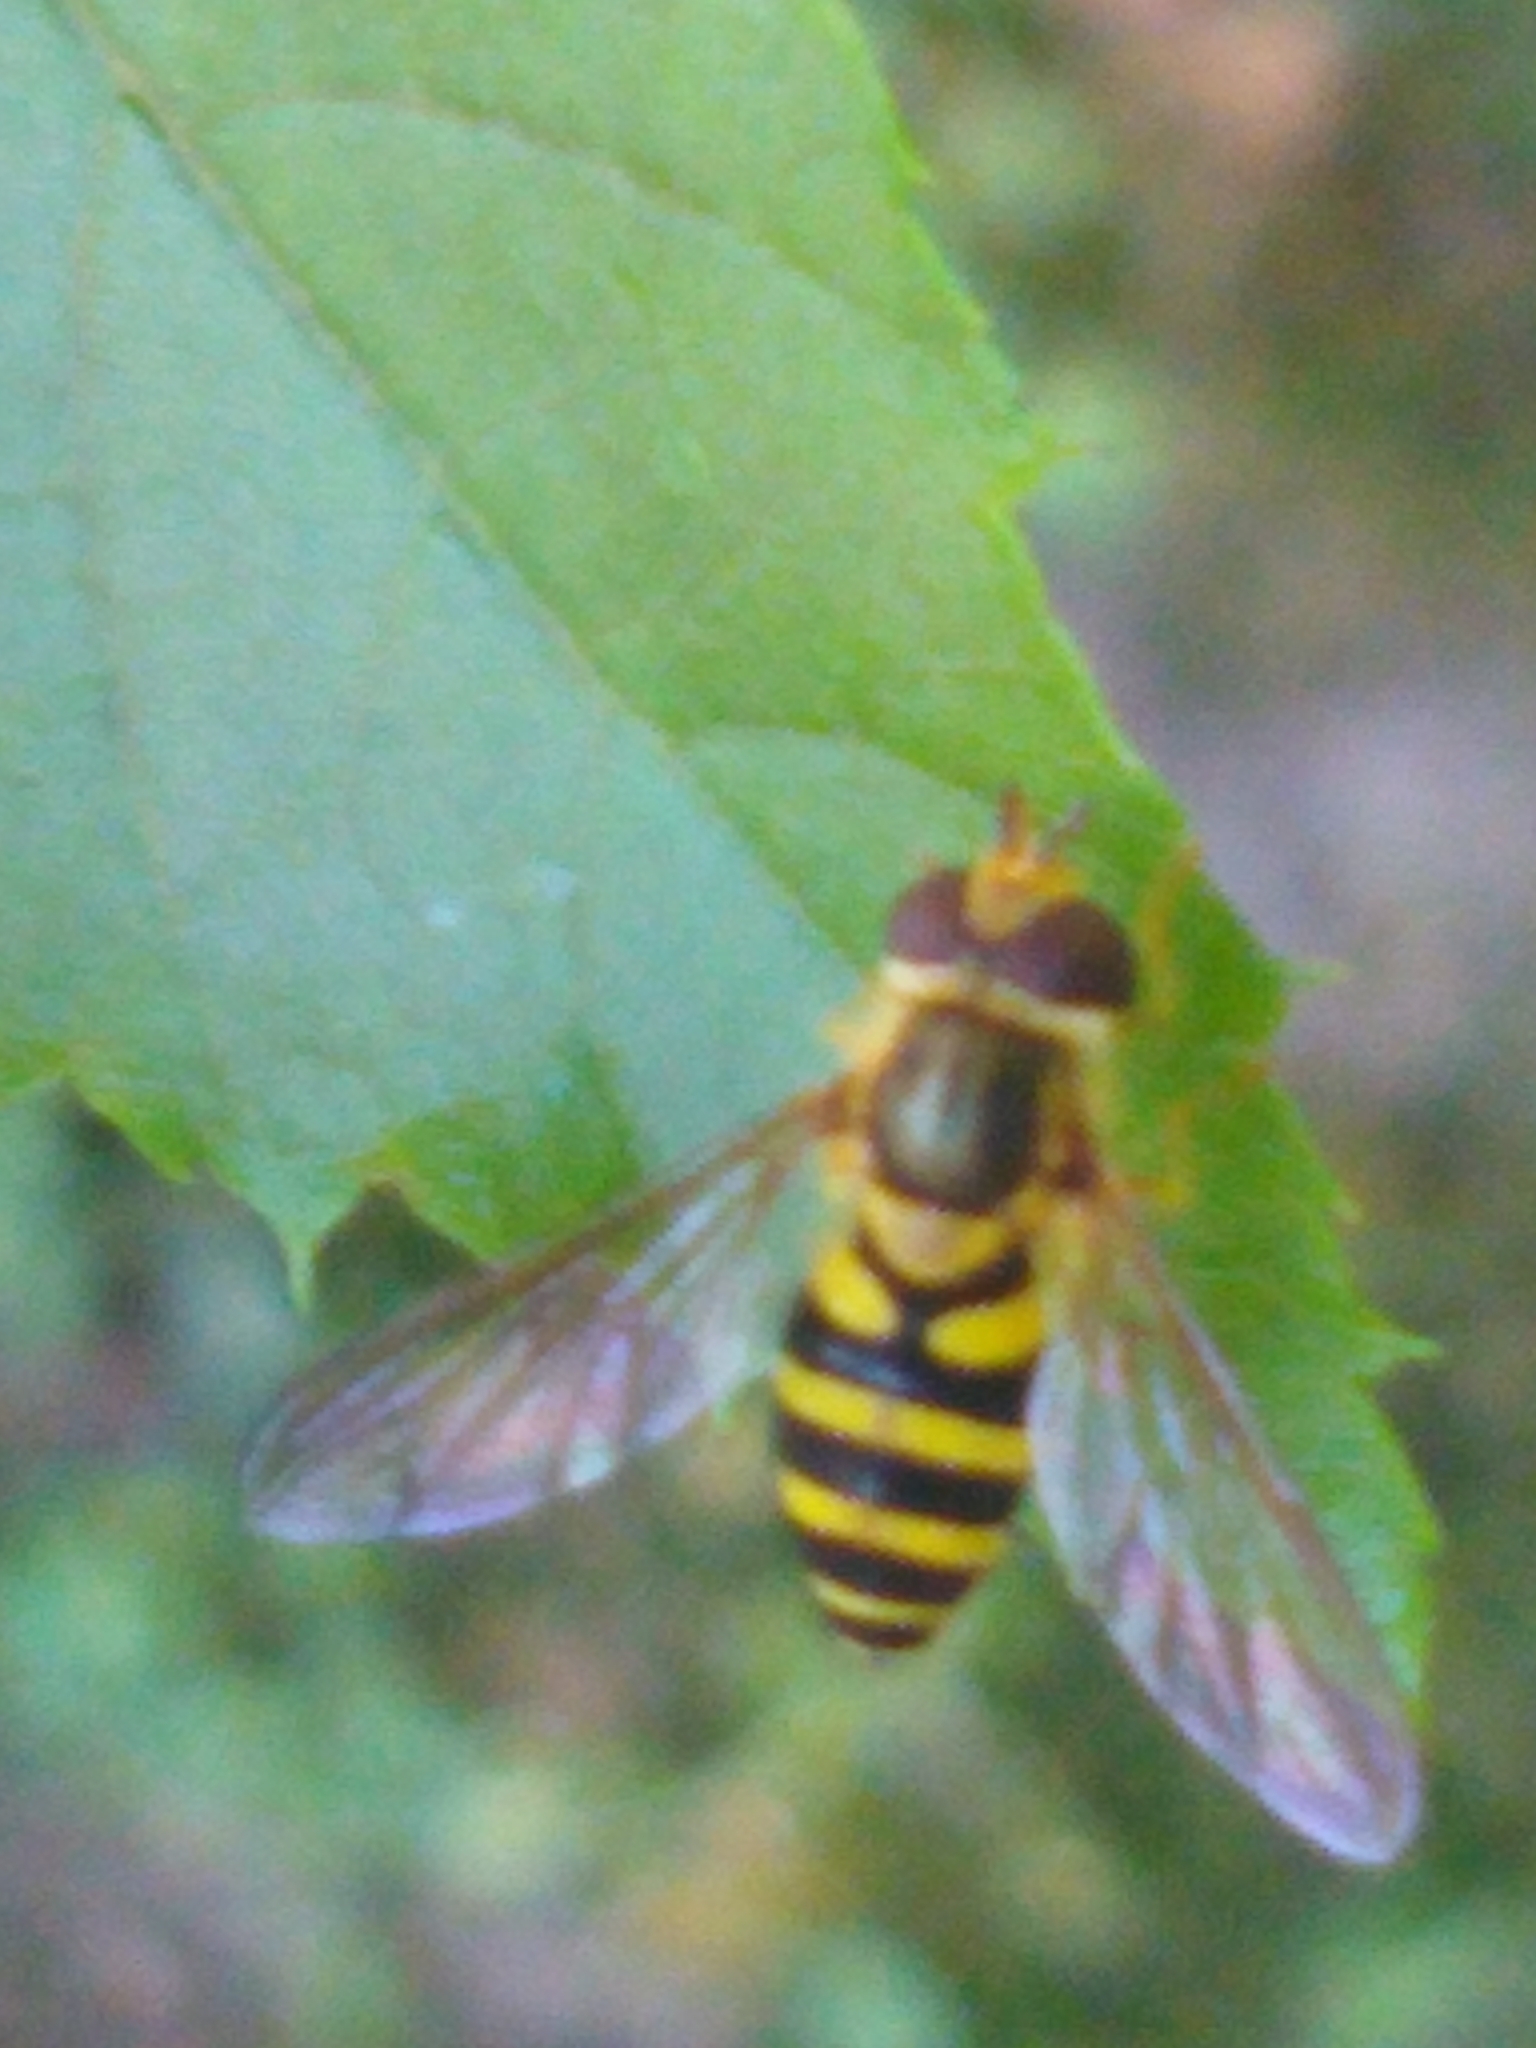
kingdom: Animalia
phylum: Arthropoda
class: Insecta
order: Diptera
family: Syrphidae
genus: Syrphus
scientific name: Syrphus knabi
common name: Eastern flower fly
